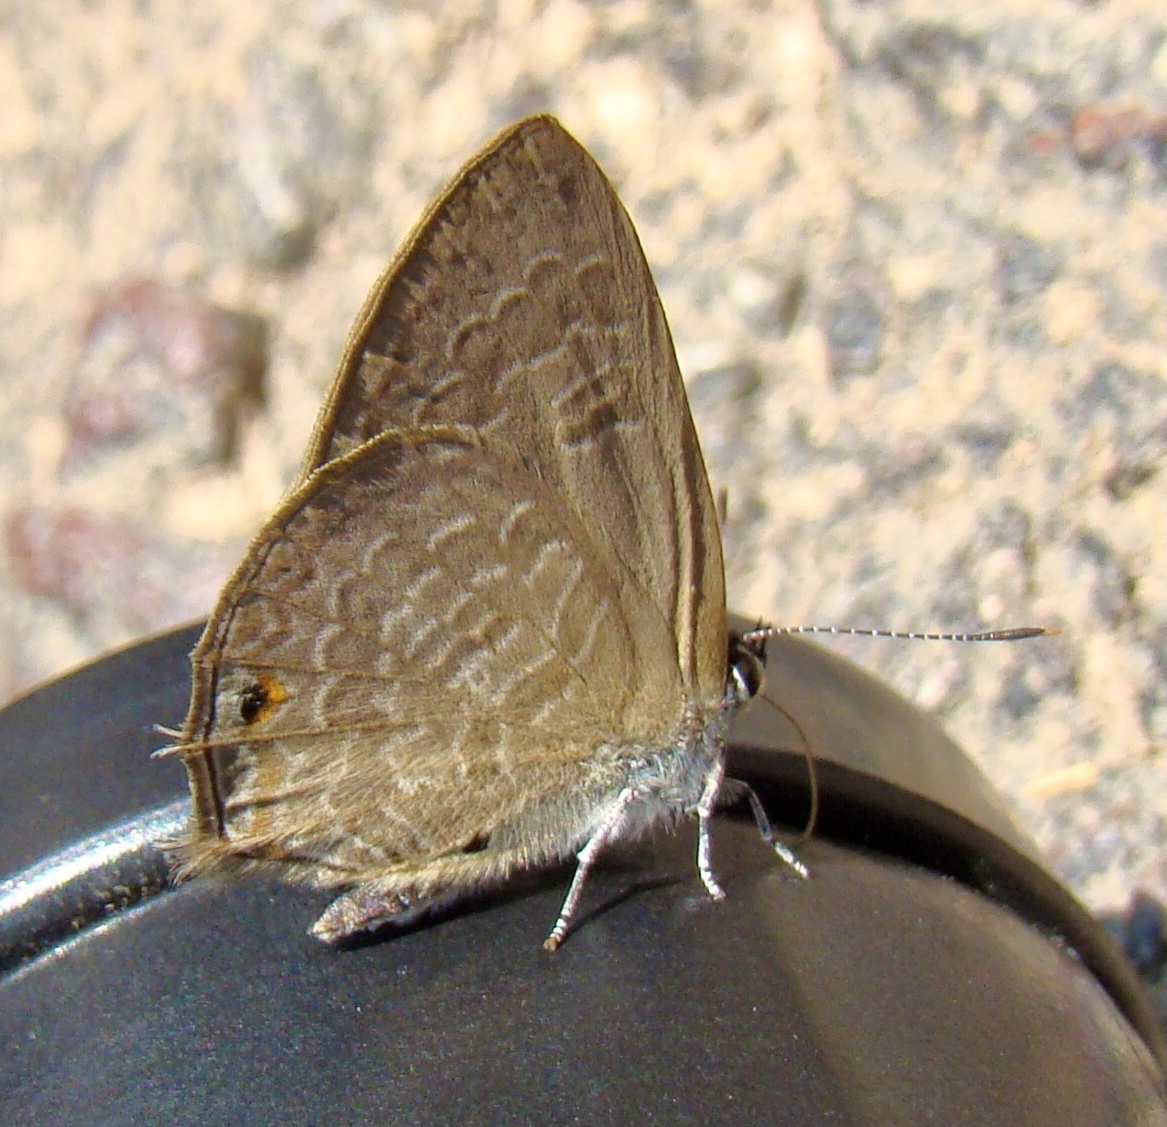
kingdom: Animalia
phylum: Arthropoda
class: Insecta
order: Lepidoptera
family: Lycaenidae
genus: Anthene
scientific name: Anthene emolus
